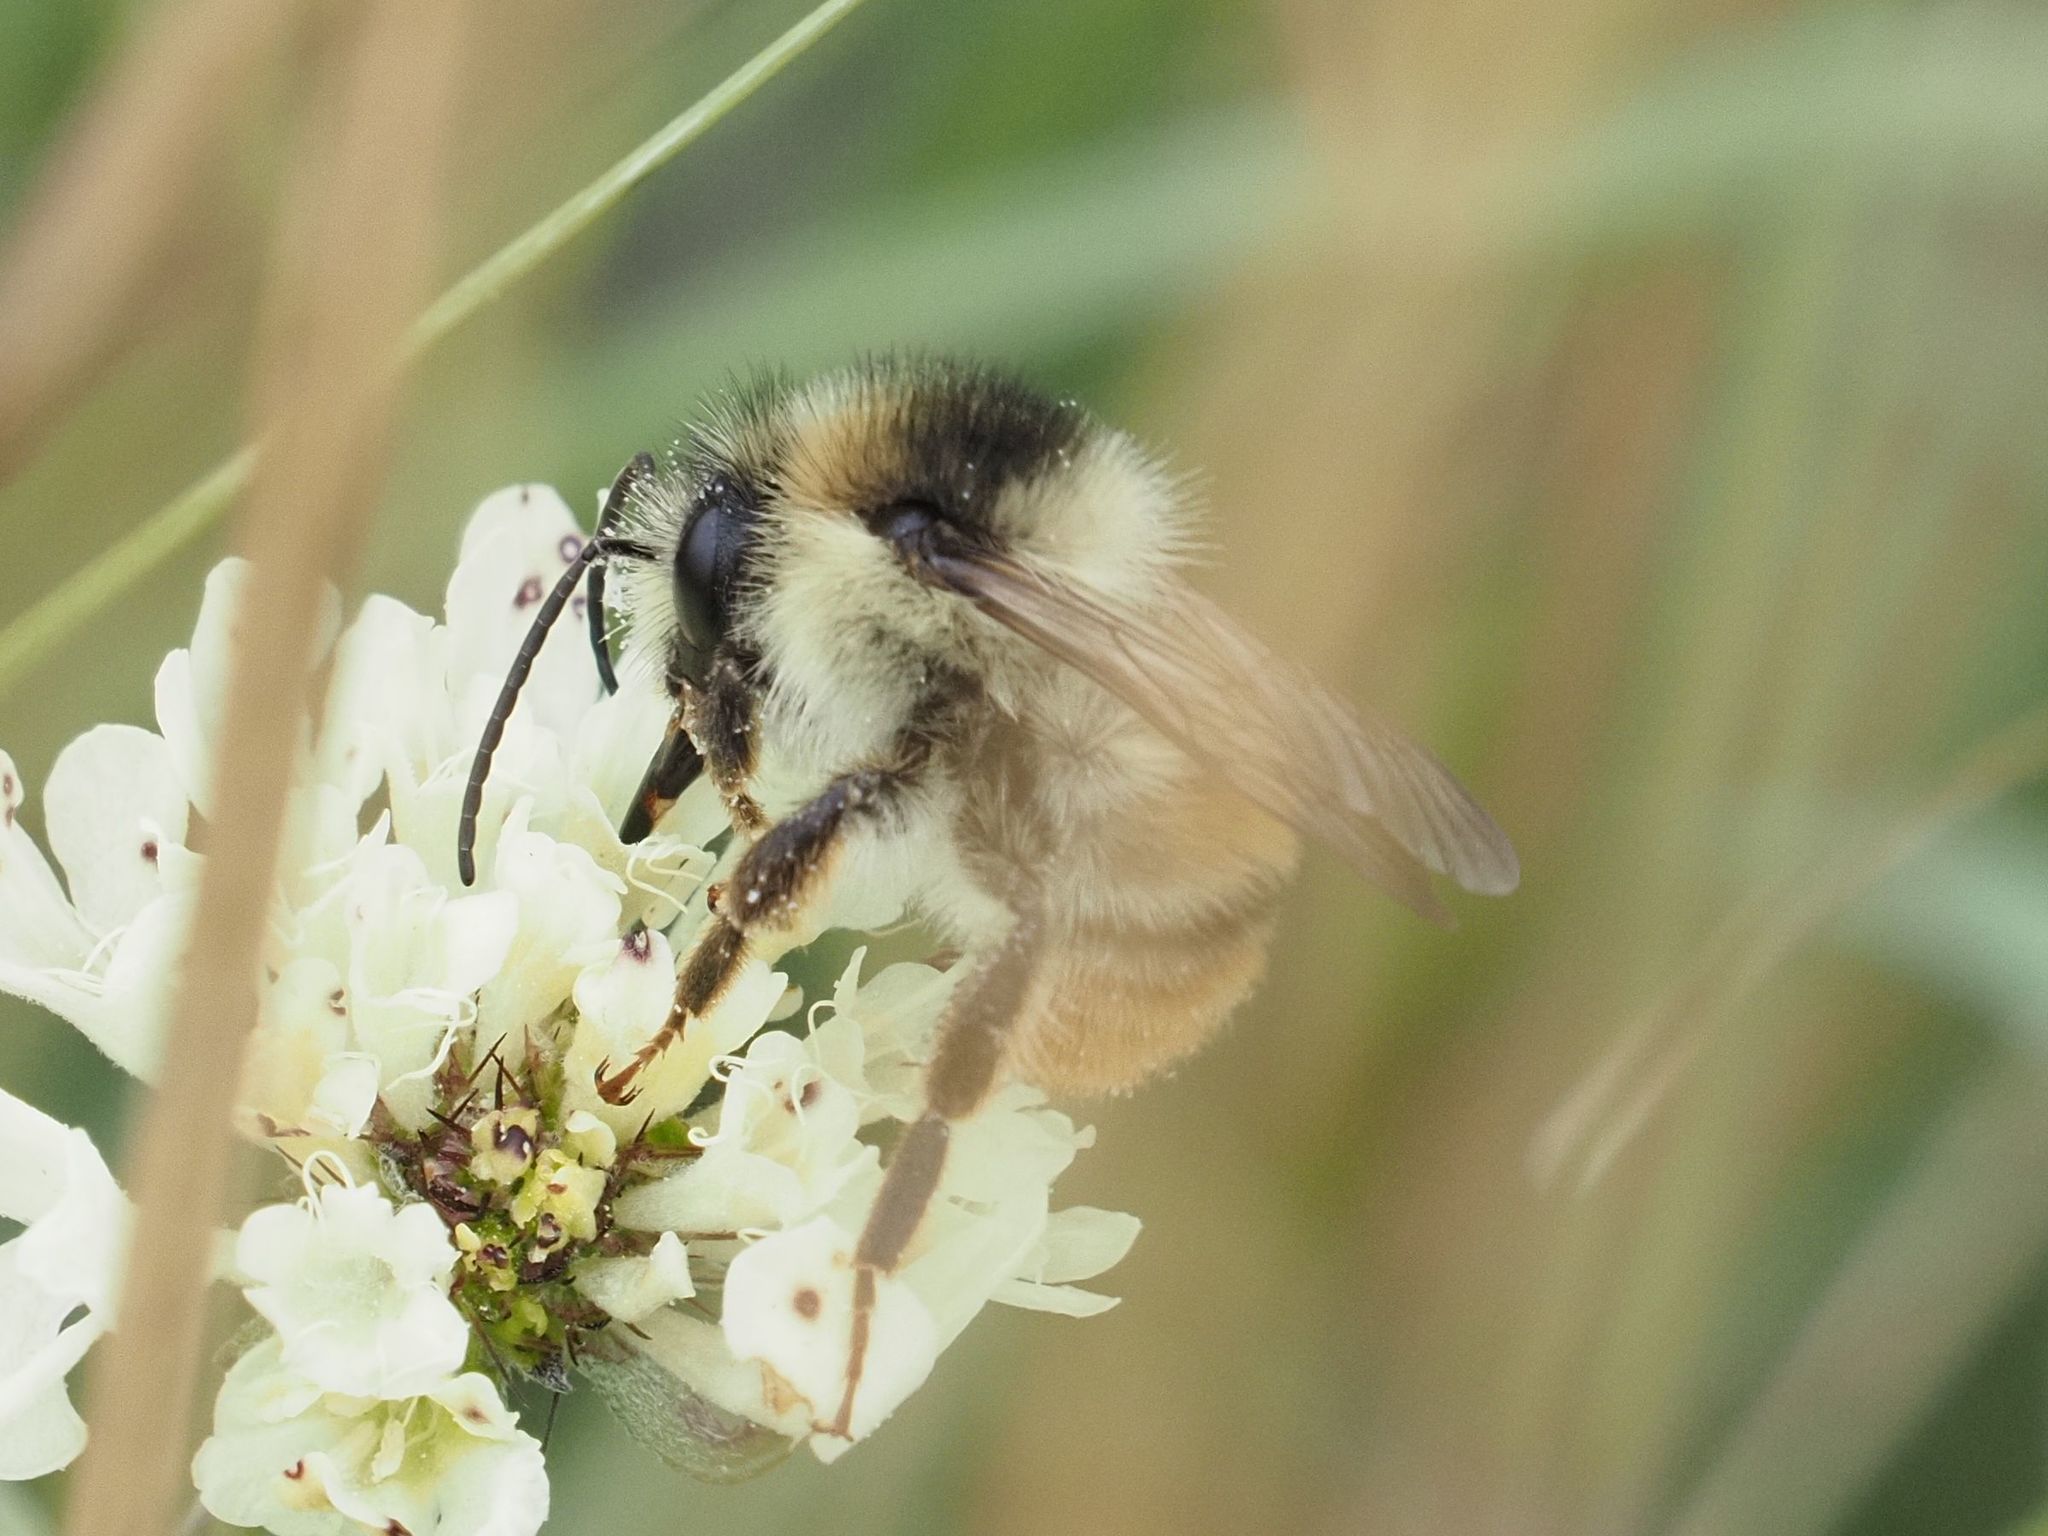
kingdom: Animalia
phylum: Arthropoda
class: Insecta
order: Hymenoptera
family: Apidae
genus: Bombus
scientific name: Bombus sylvarum
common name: Shrill carder bee
